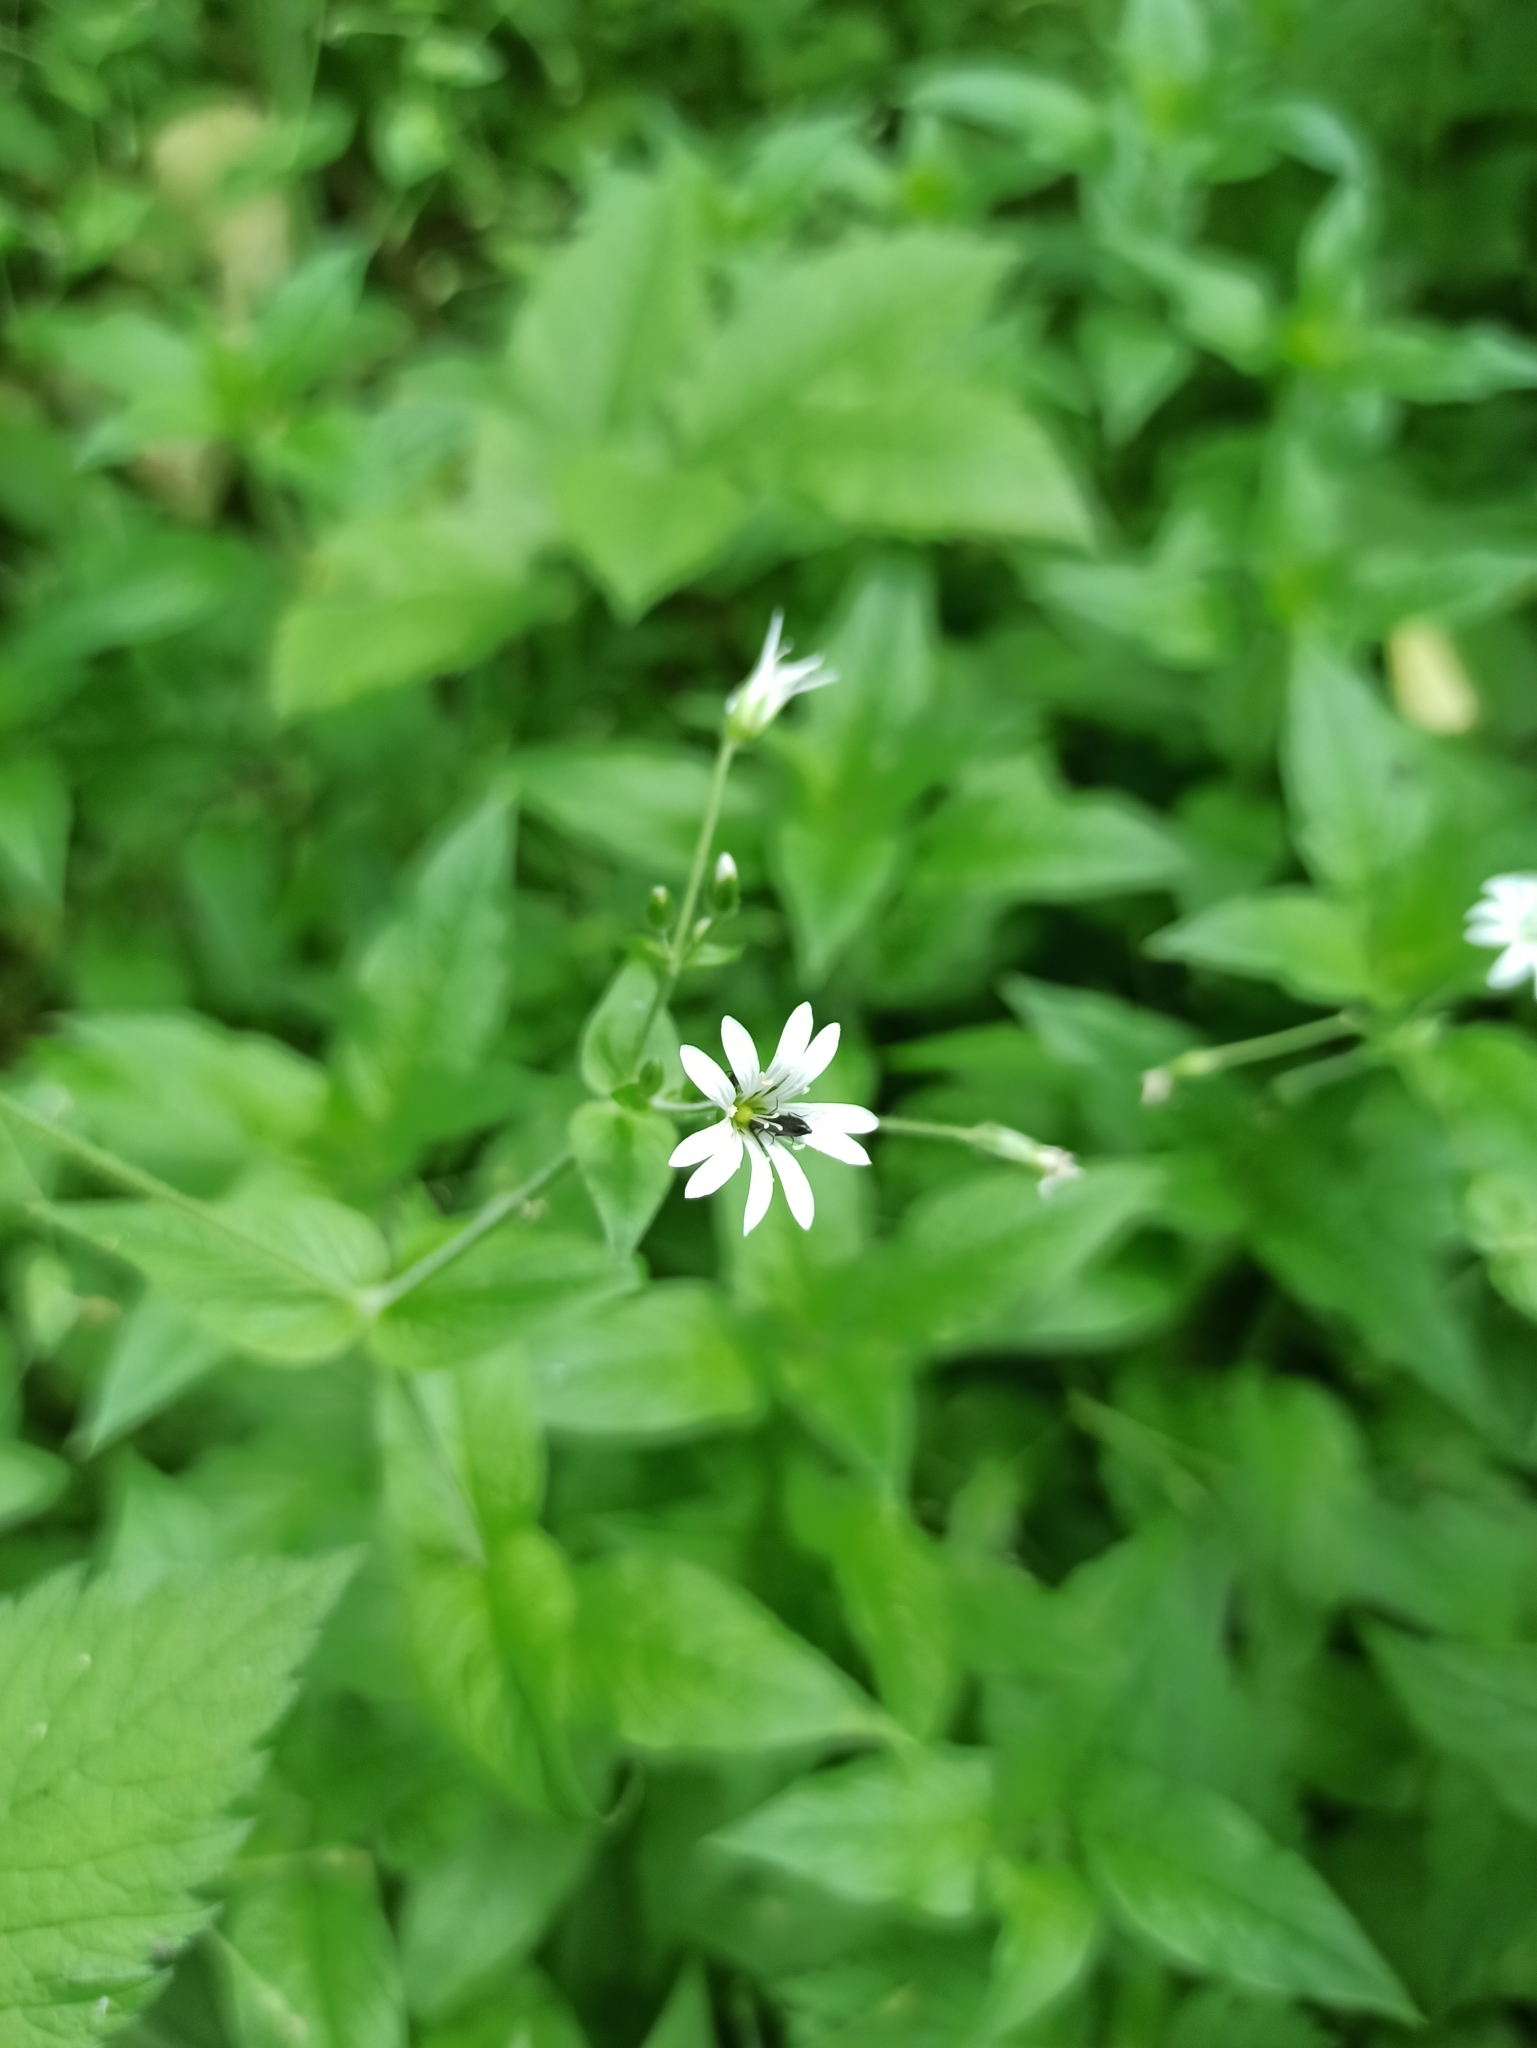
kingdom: Plantae
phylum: Tracheophyta
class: Magnoliopsida
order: Caryophyllales
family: Caryophyllaceae
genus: Stellaria
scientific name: Stellaria nemorum
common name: Wood stitchwort
